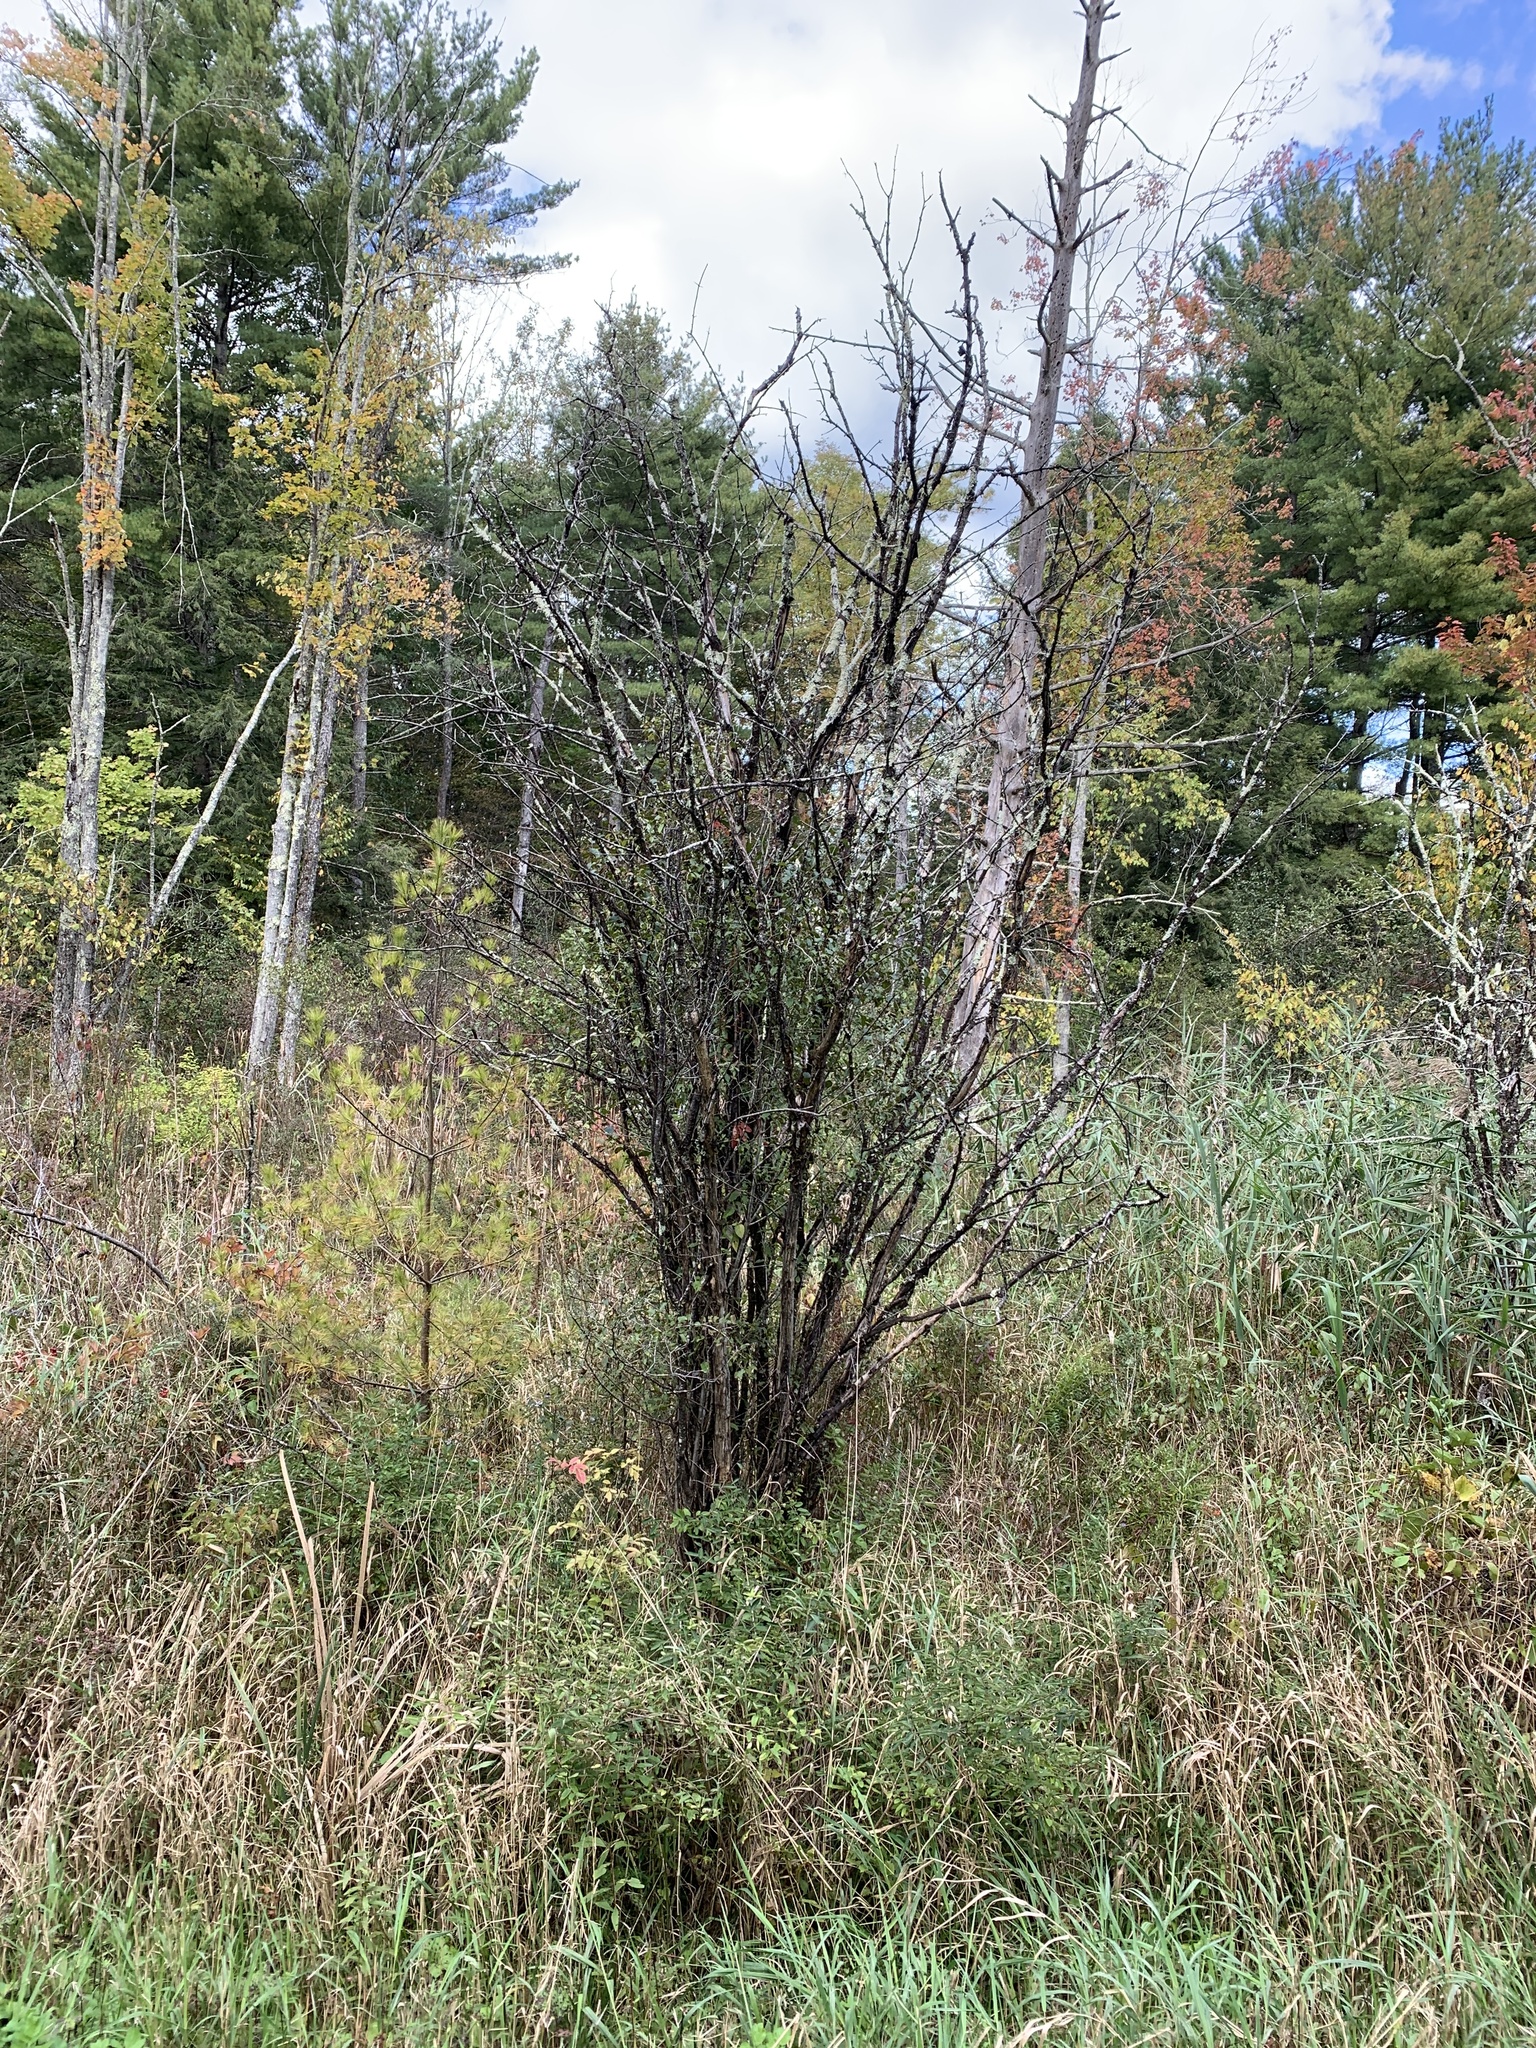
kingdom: Plantae
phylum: Tracheophyta
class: Magnoliopsida
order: Rosales
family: Rhamnaceae
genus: Rhamnus
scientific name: Rhamnus cathartica
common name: Common buckthorn
